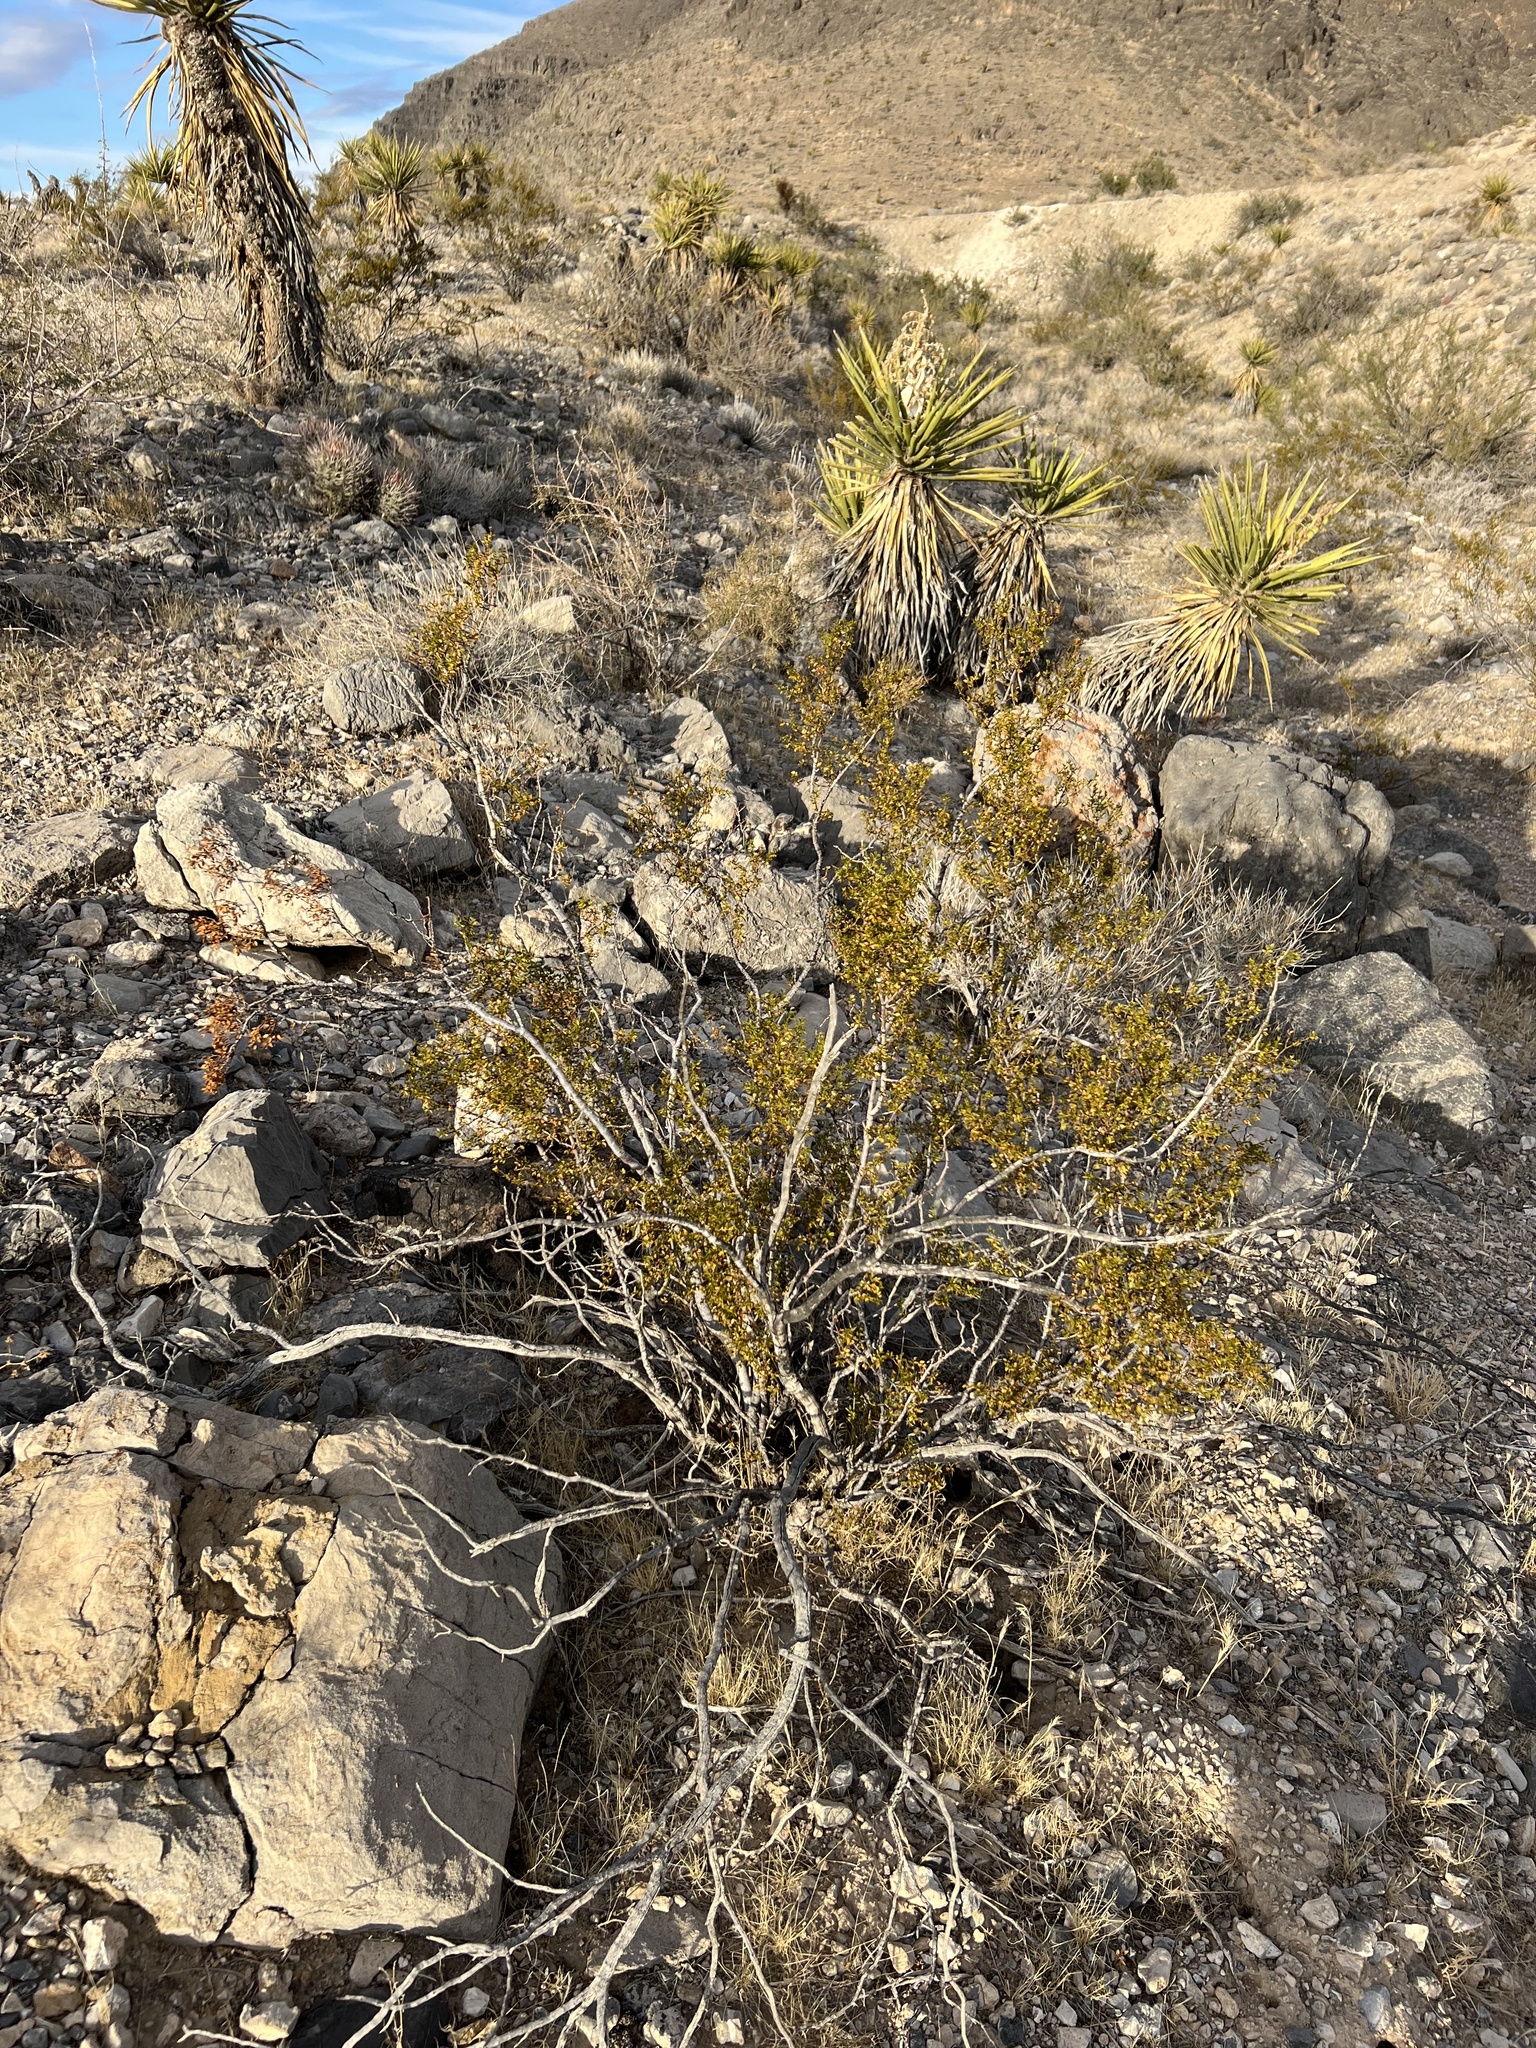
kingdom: Plantae
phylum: Tracheophyta
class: Magnoliopsida
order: Zygophyllales
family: Zygophyllaceae
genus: Larrea
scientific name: Larrea tridentata
